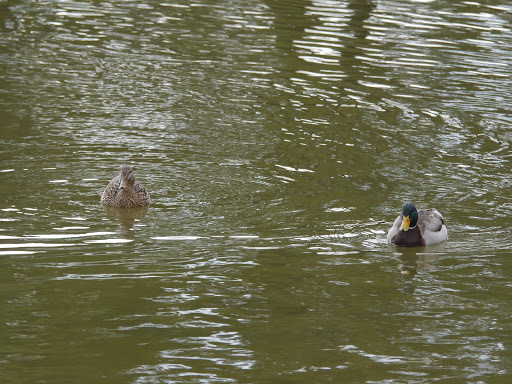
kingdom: Animalia
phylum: Chordata
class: Aves
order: Anseriformes
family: Anatidae
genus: Anas
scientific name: Anas platyrhynchos
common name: Mallard
